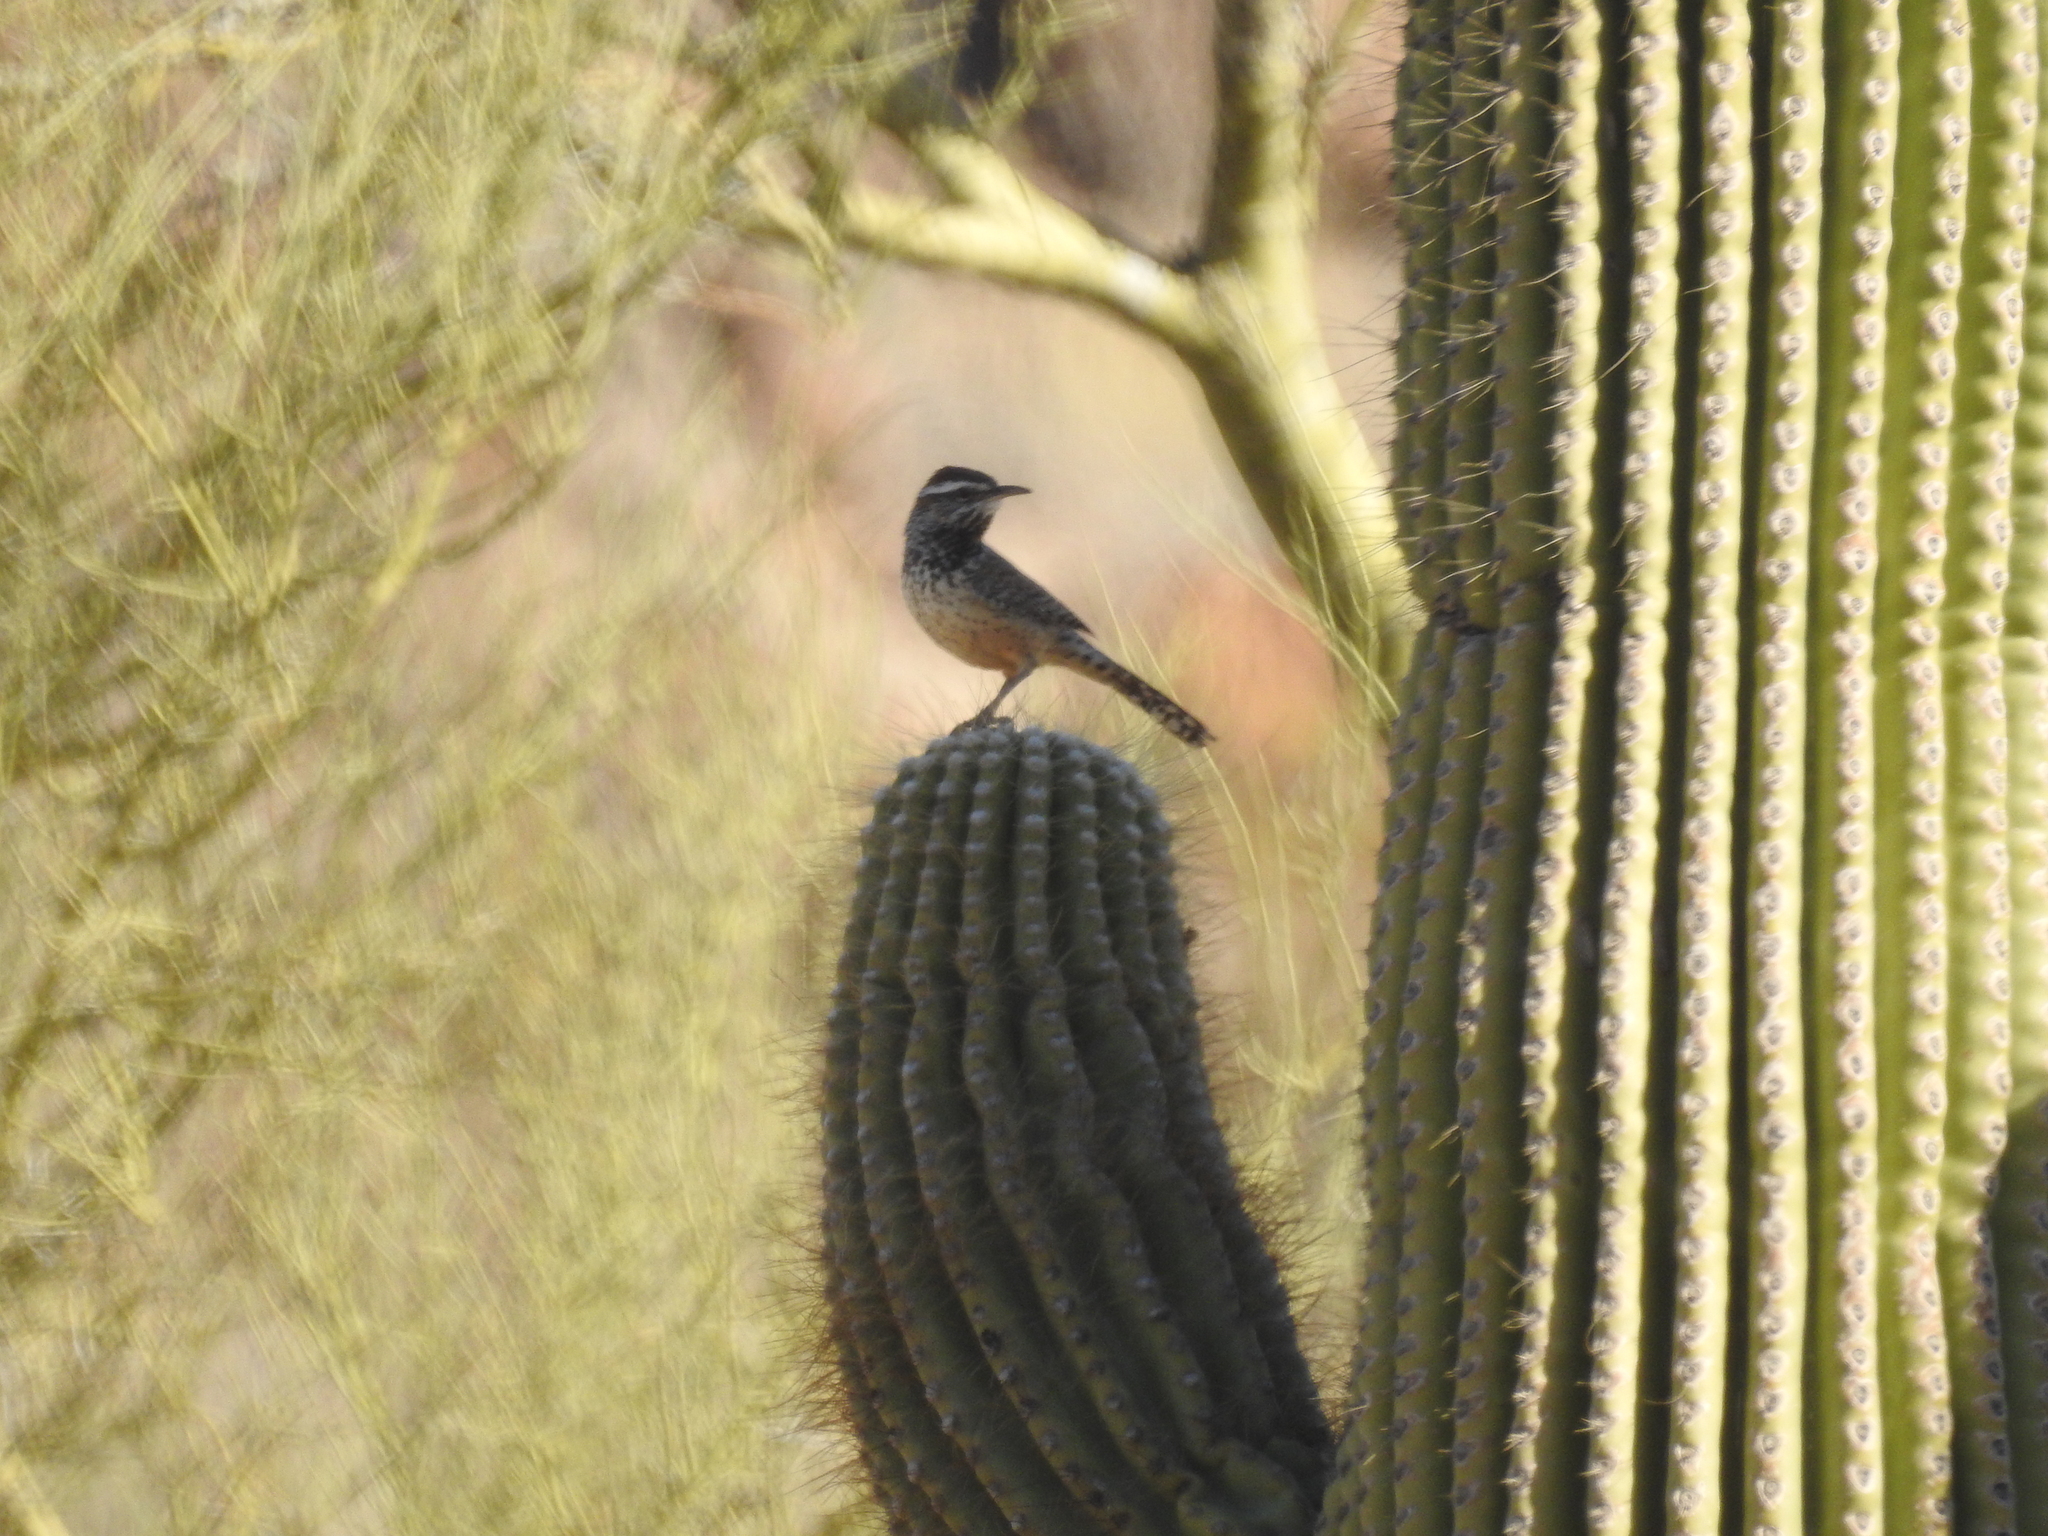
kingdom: Animalia
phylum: Chordata
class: Aves
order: Passeriformes
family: Troglodytidae
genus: Campylorhynchus
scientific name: Campylorhynchus brunneicapillus
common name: Cactus wren
